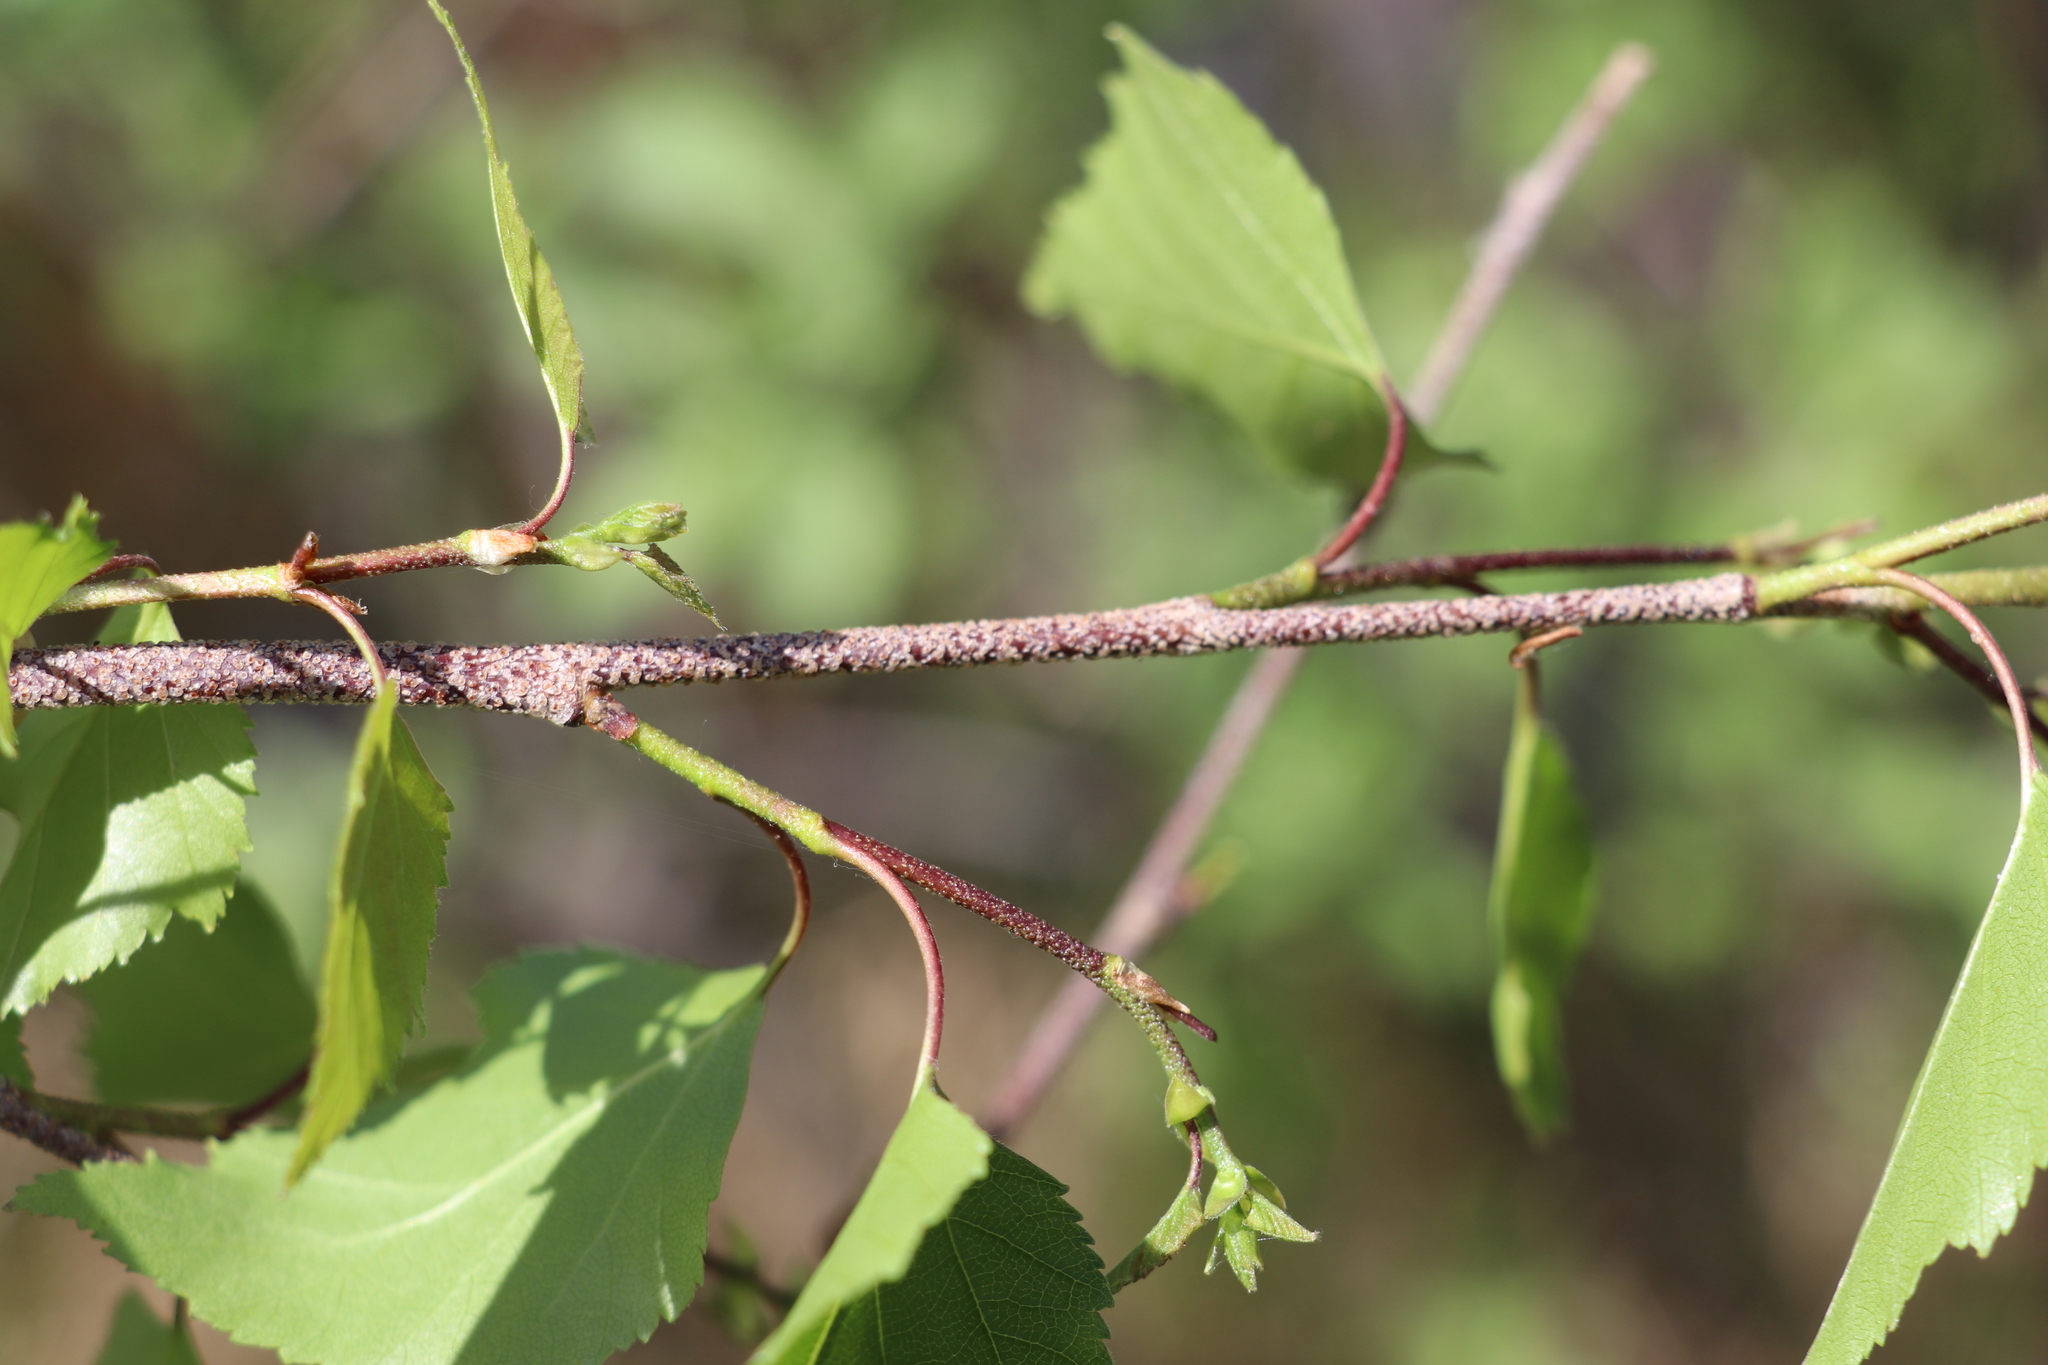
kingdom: Plantae
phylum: Tracheophyta
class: Magnoliopsida
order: Fagales
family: Betulaceae
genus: Betula
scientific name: Betula pendula
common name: Silver birch
